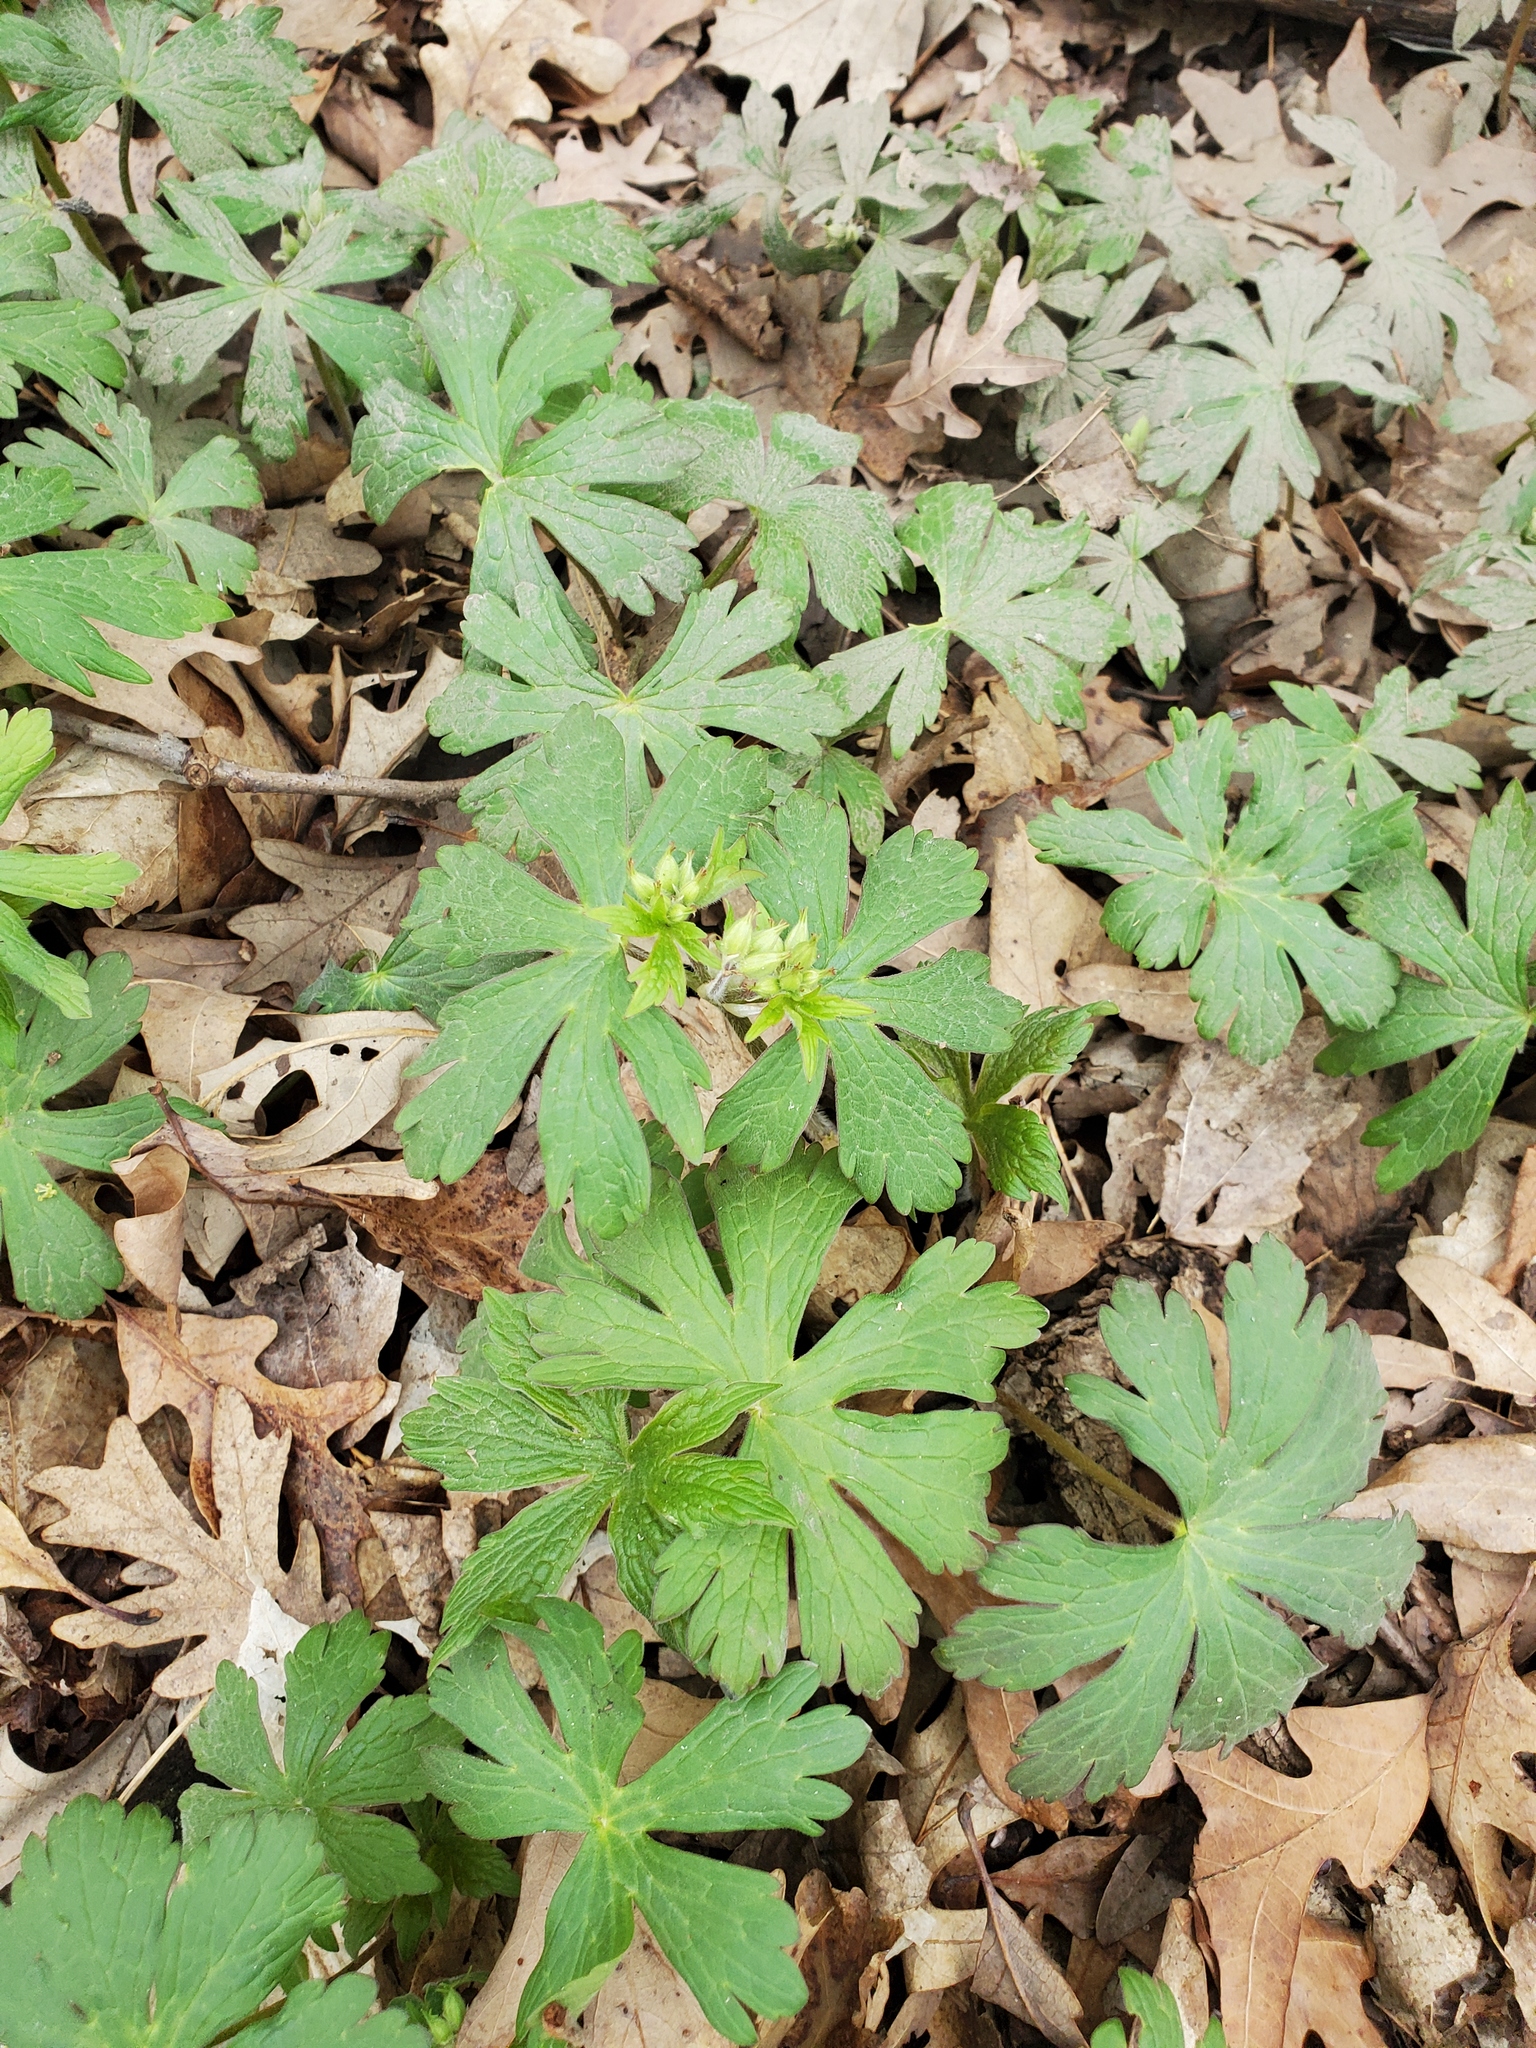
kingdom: Plantae
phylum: Tracheophyta
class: Magnoliopsida
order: Geraniales
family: Geraniaceae
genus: Geranium
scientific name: Geranium maculatum
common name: Spotted geranium
